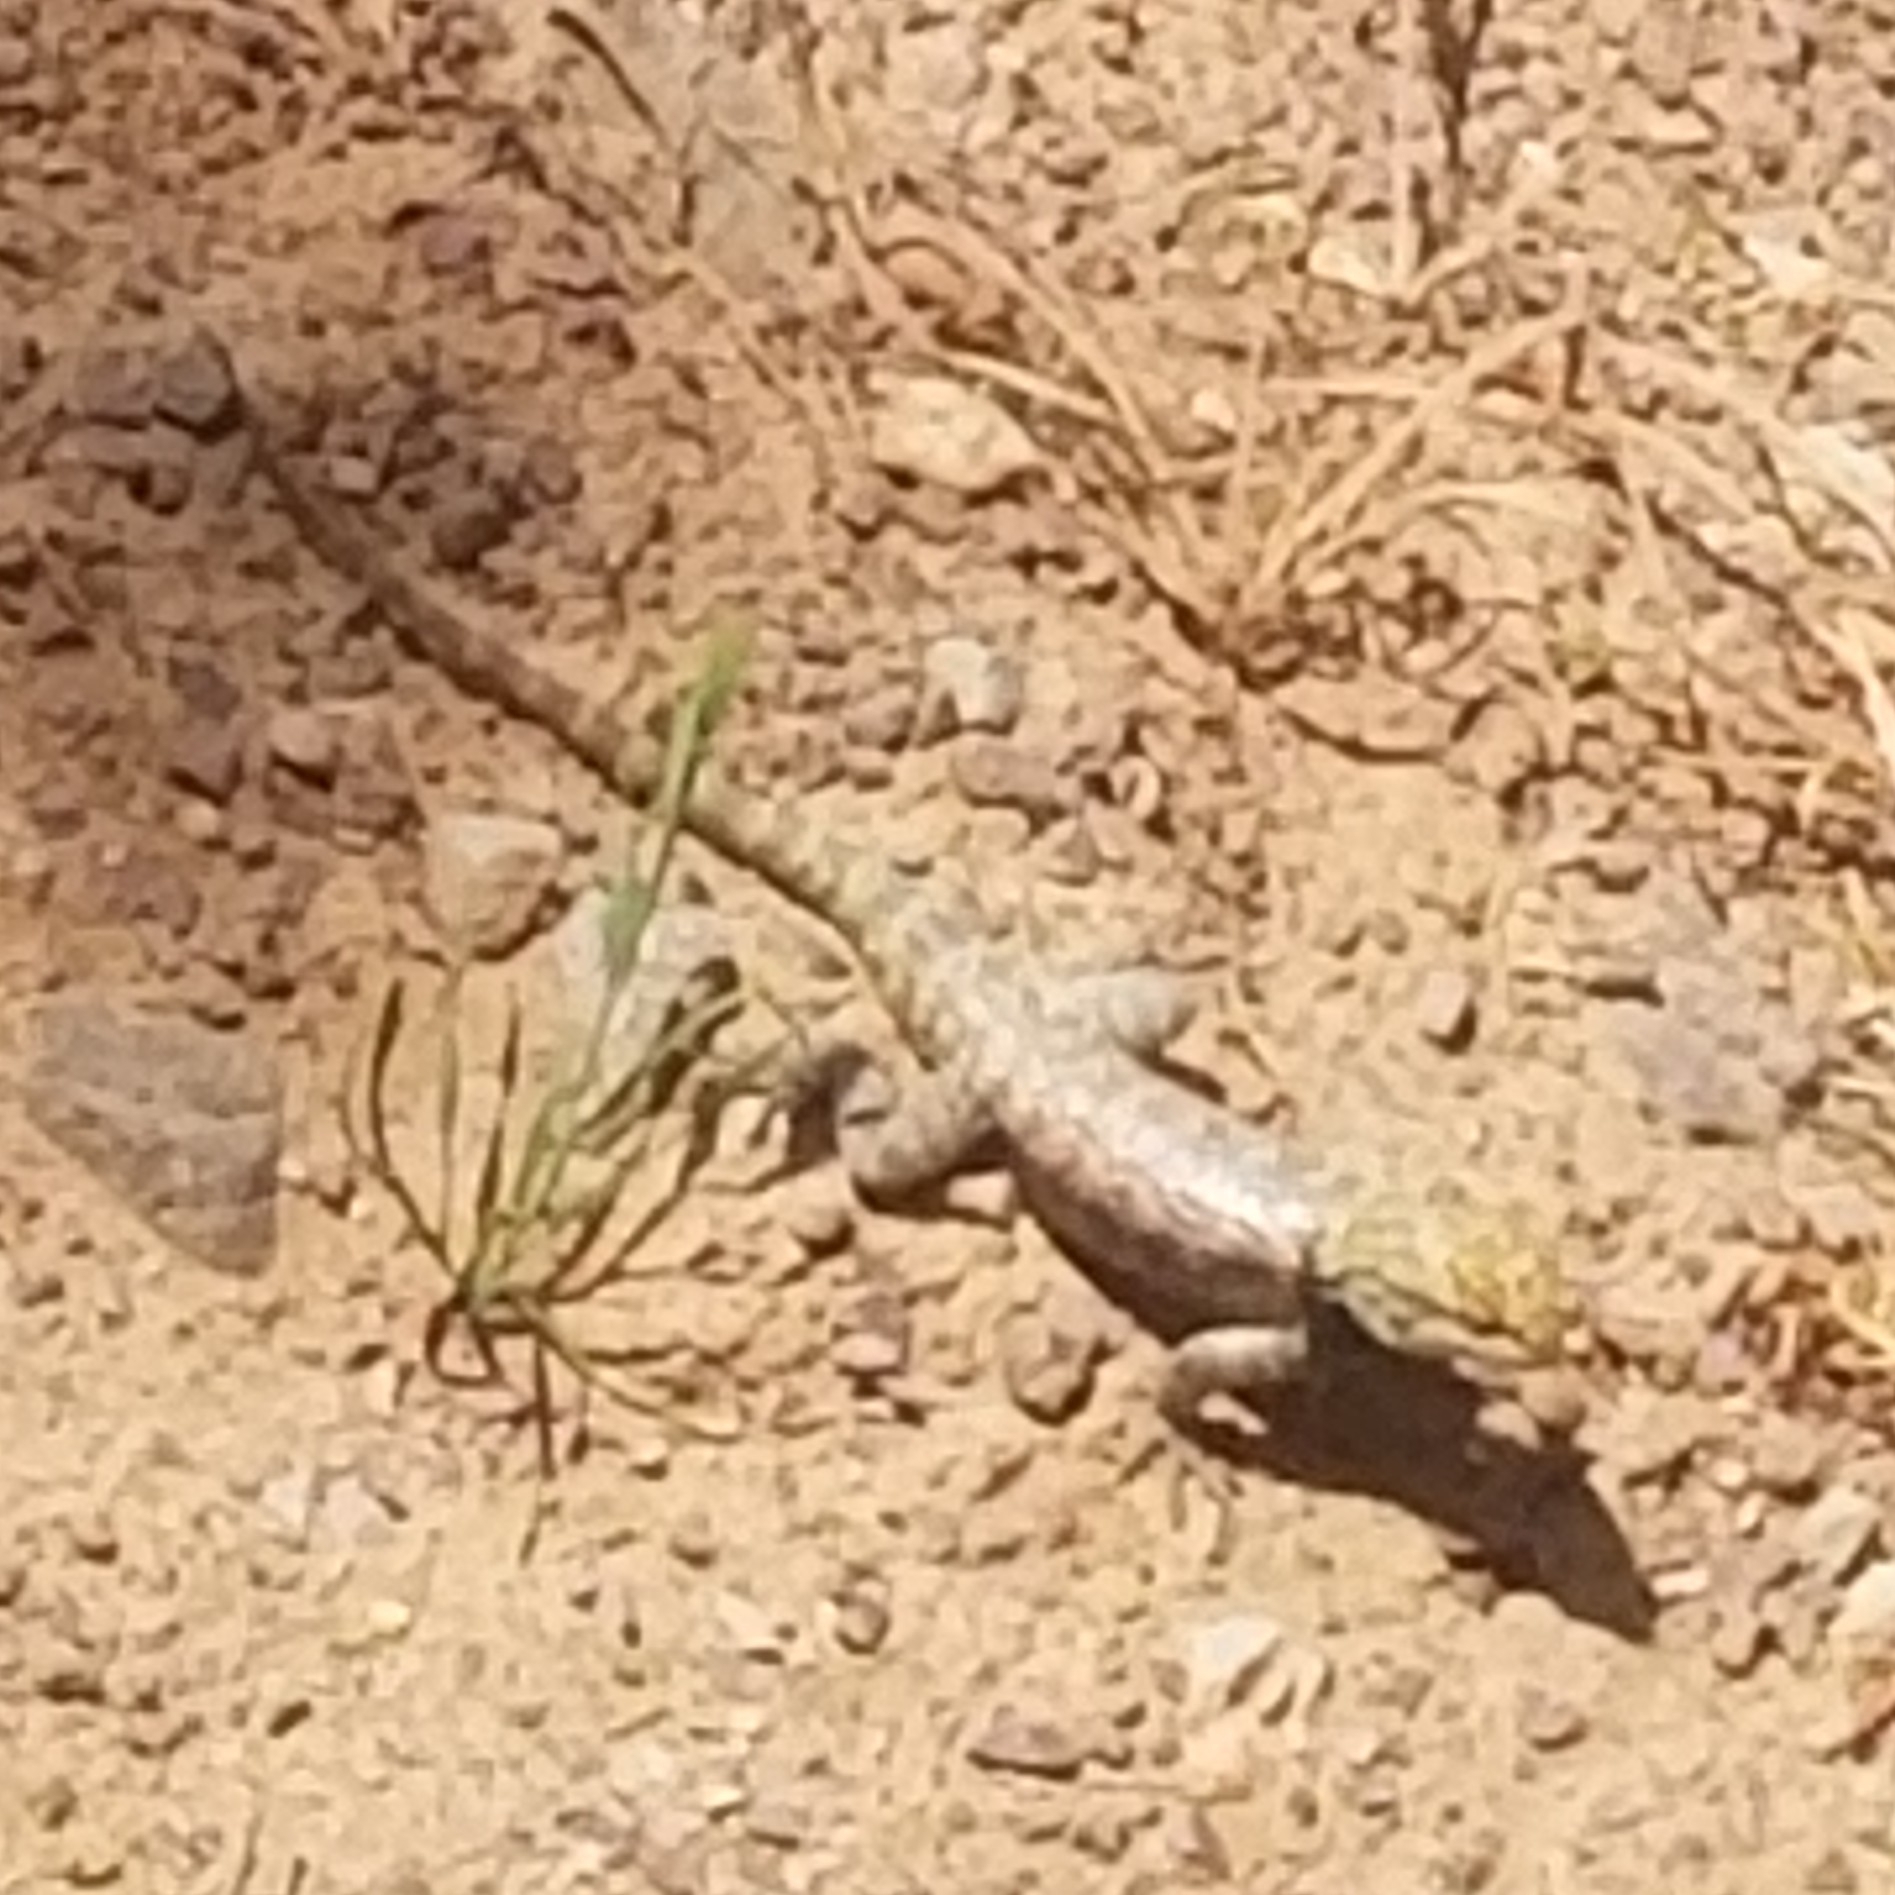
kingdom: Animalia
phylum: Chordata
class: Squamata
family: Phrynosomatidae
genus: Sceloporus
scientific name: Sceloporus uniformis
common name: Yellow-backed spiny lizard
